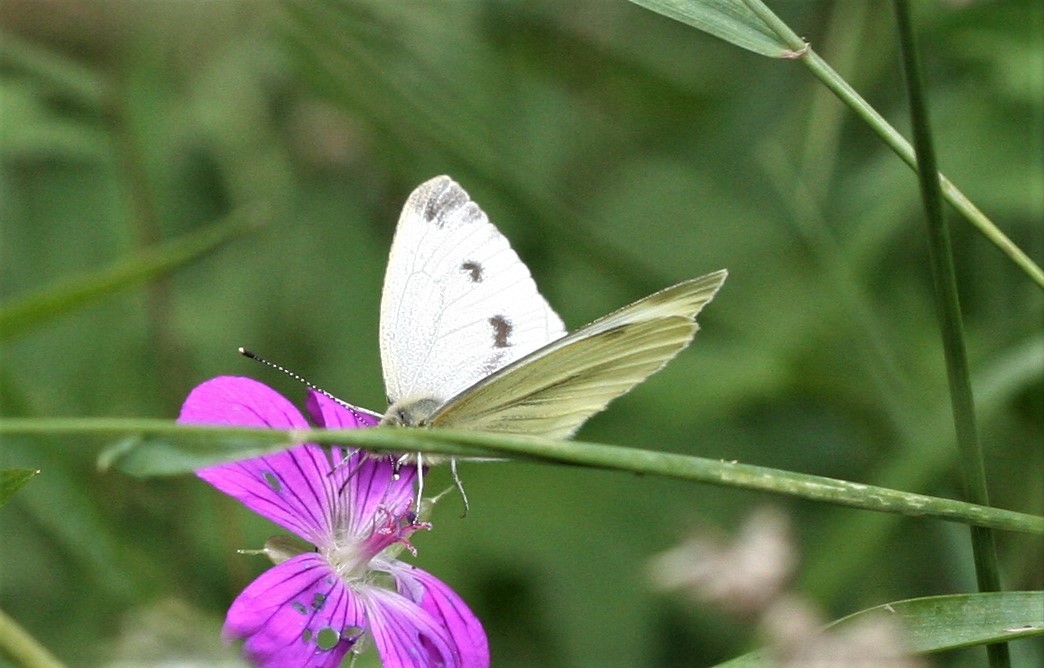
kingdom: Animalia
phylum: Arthropoda
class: Insecta
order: Lepidoptera
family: Pieridae
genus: Pieris
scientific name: Pieris napi
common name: Green-veined white
